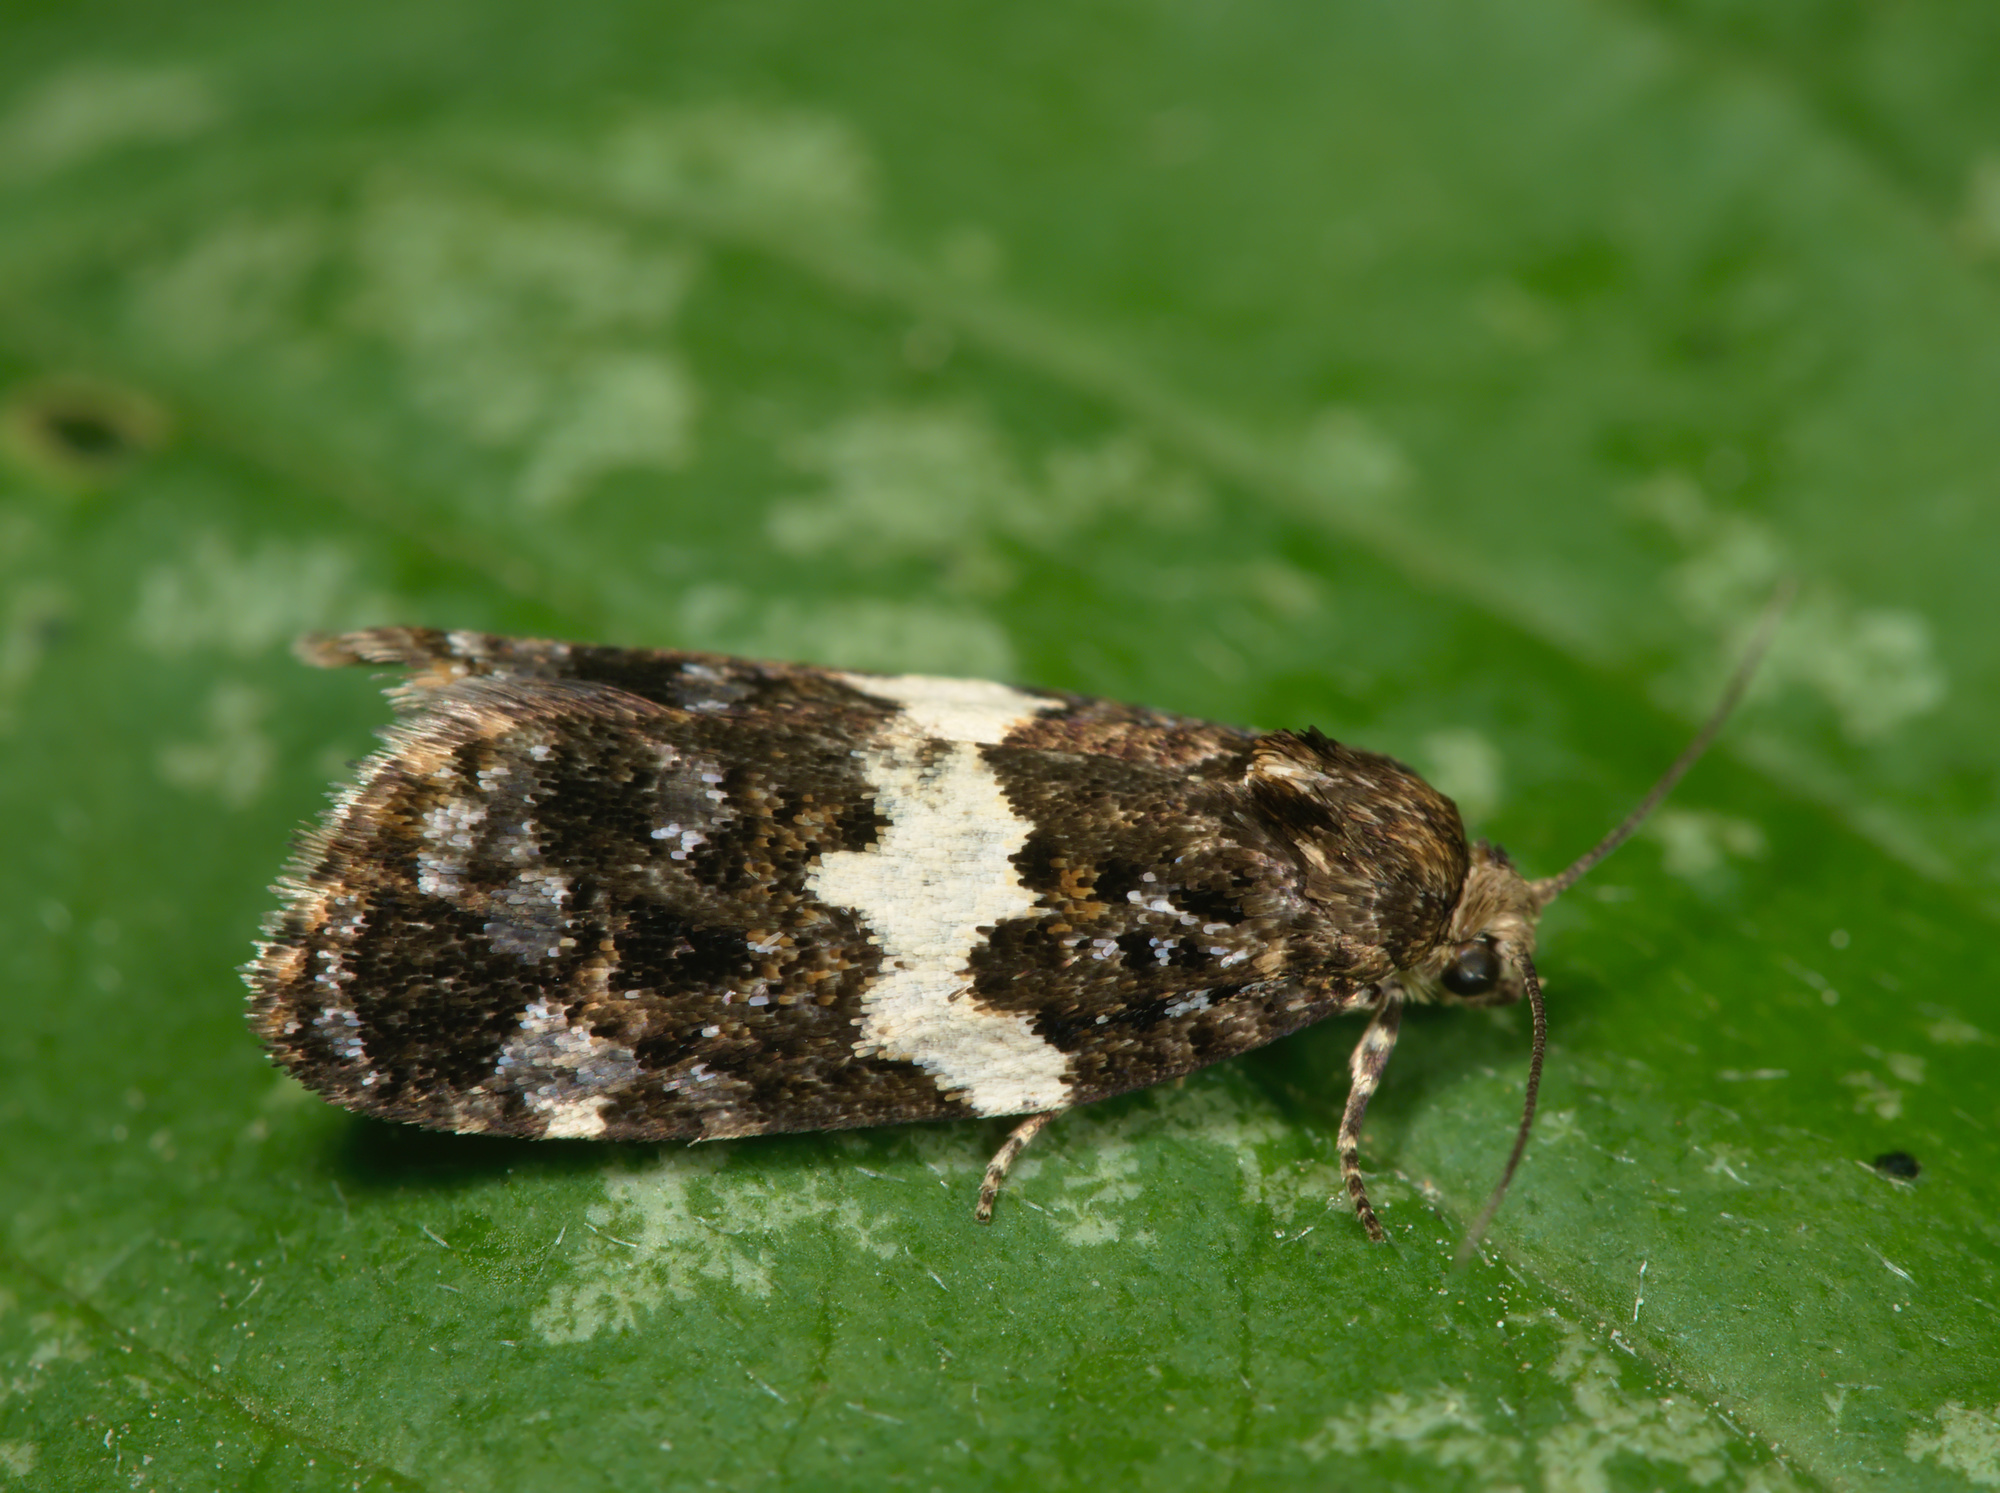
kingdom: Animalia
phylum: Arthropoda
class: Insecta
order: Lepidoptera
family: Tortricidae
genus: Olindia
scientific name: Olindia schumacherana
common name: White-barred tortrix
